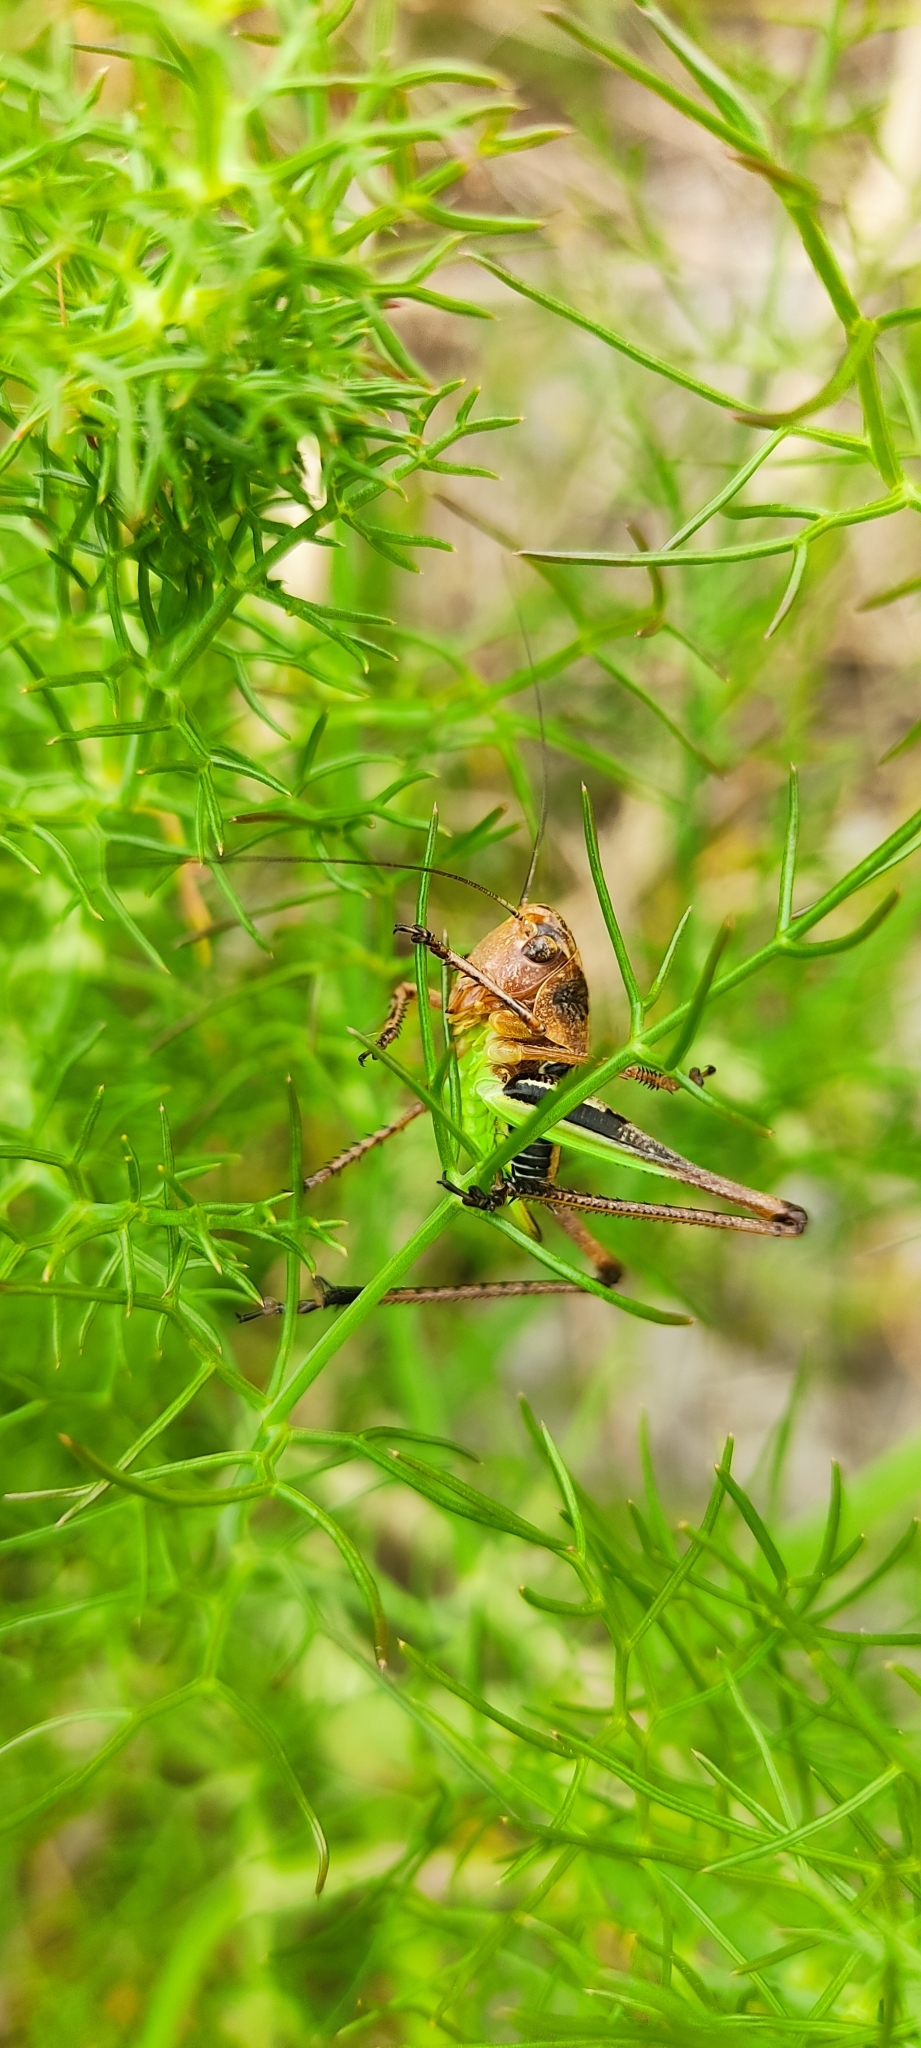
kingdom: Animalia
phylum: Arthropoda
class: Insecta
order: Orthoptera
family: Tettigoniidae
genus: Decticus
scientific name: Decticus albifrons
